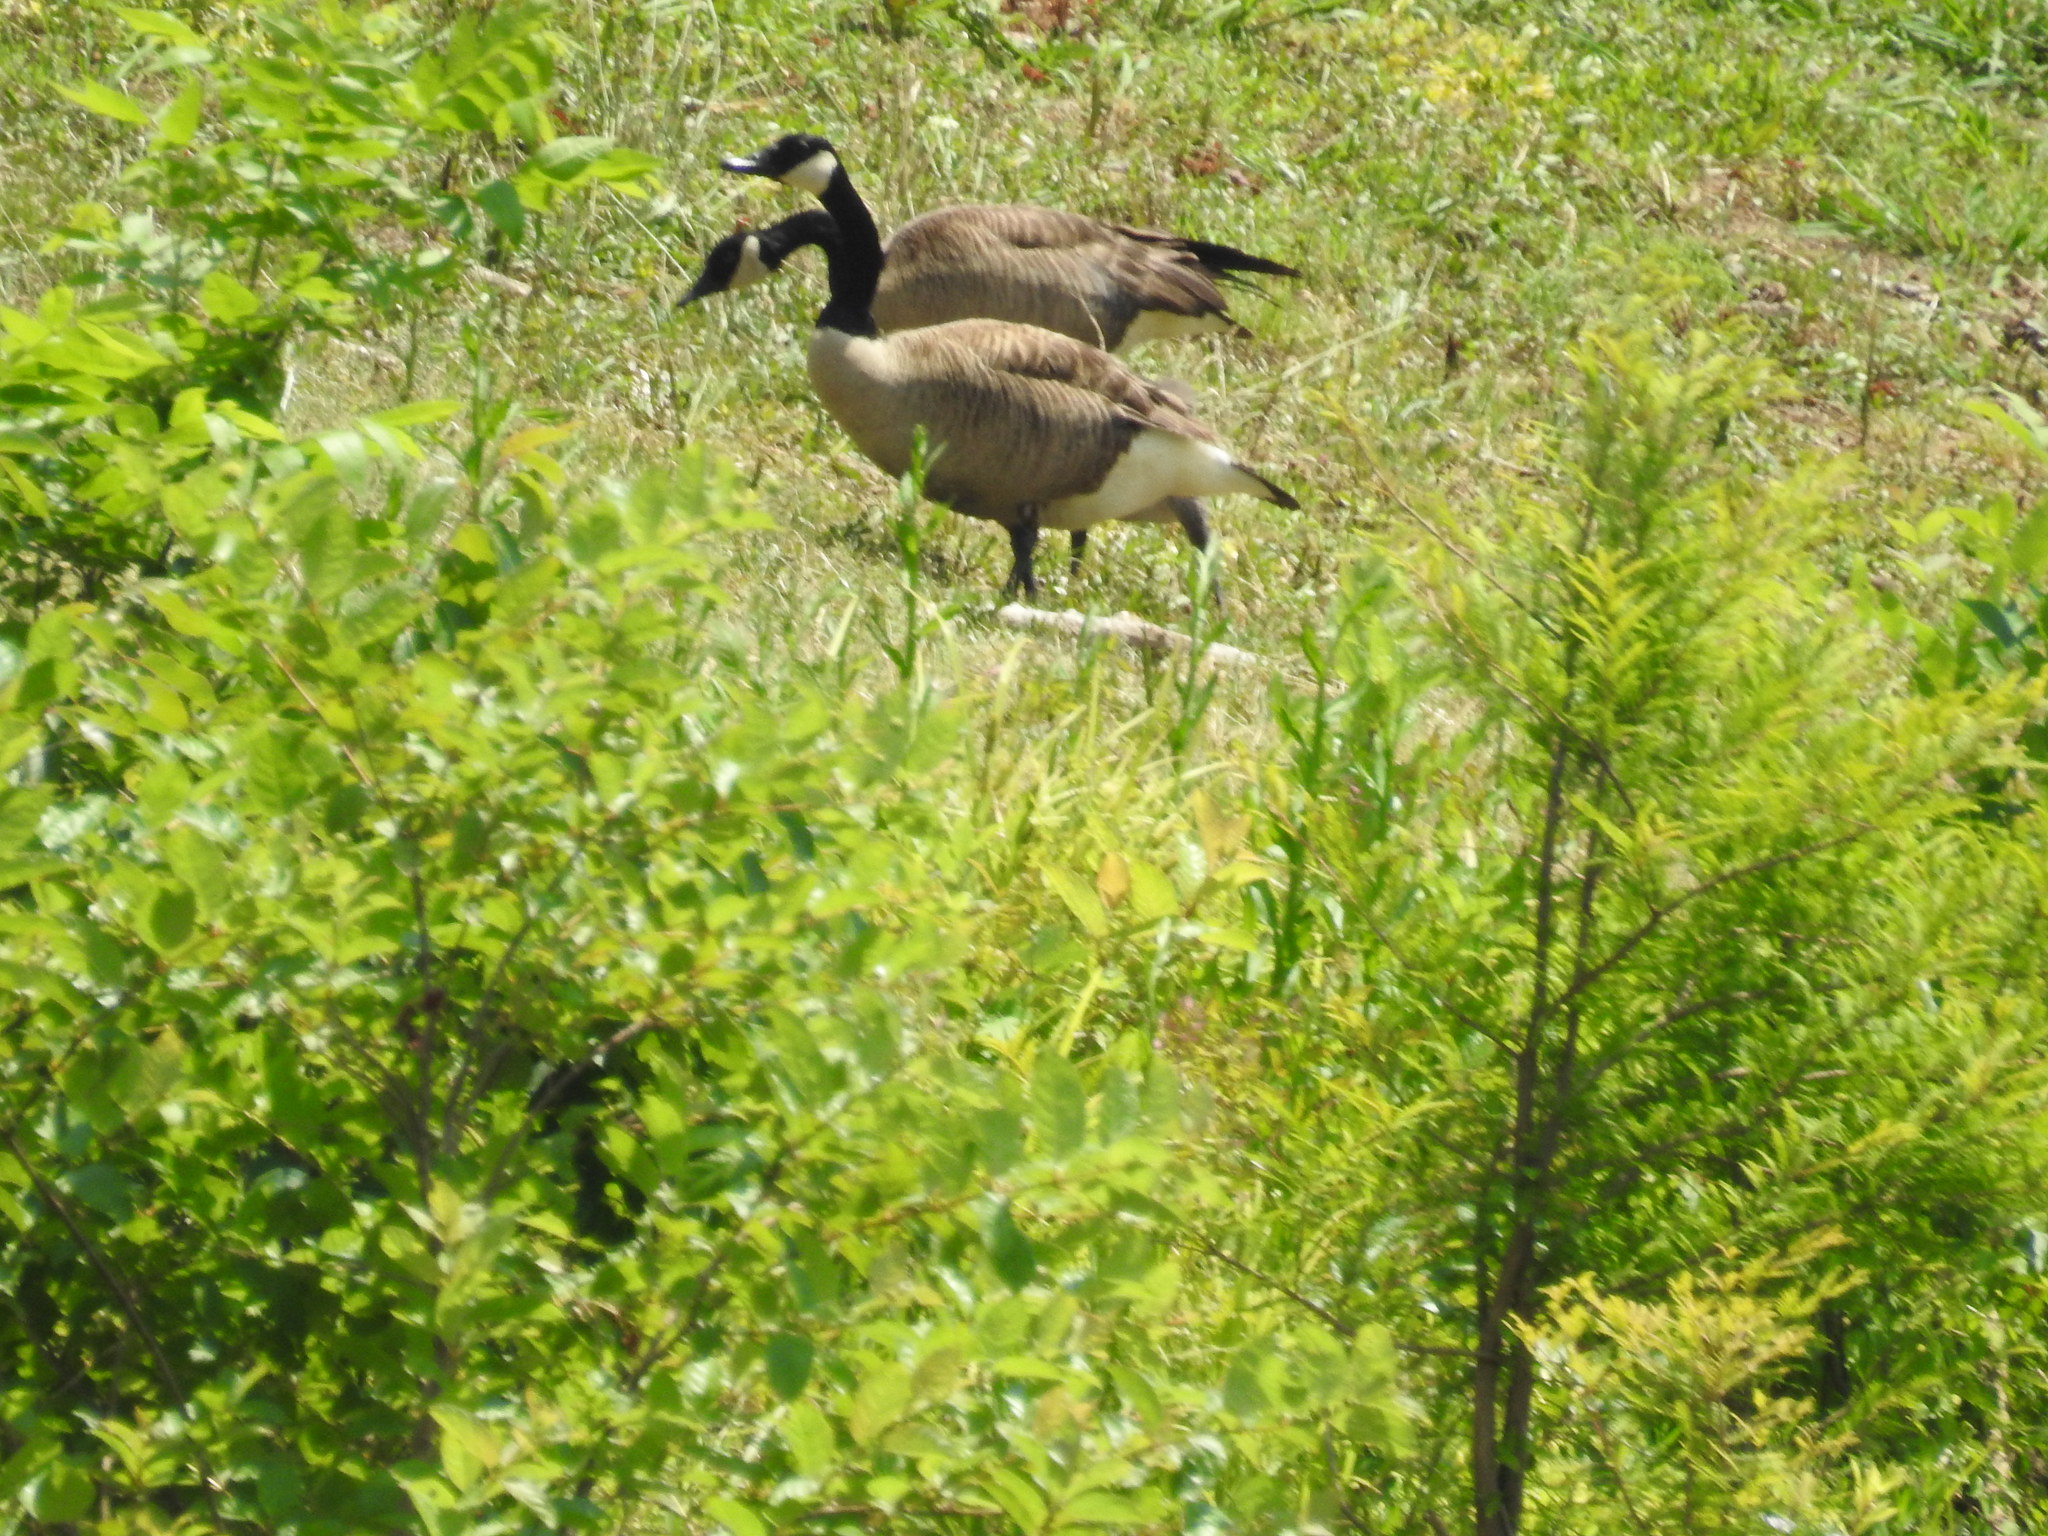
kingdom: Animalia
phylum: Chordata
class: Aves
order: Anseriformes
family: Anatidae
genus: Branta
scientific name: Branta canadensis
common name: Canada goose
